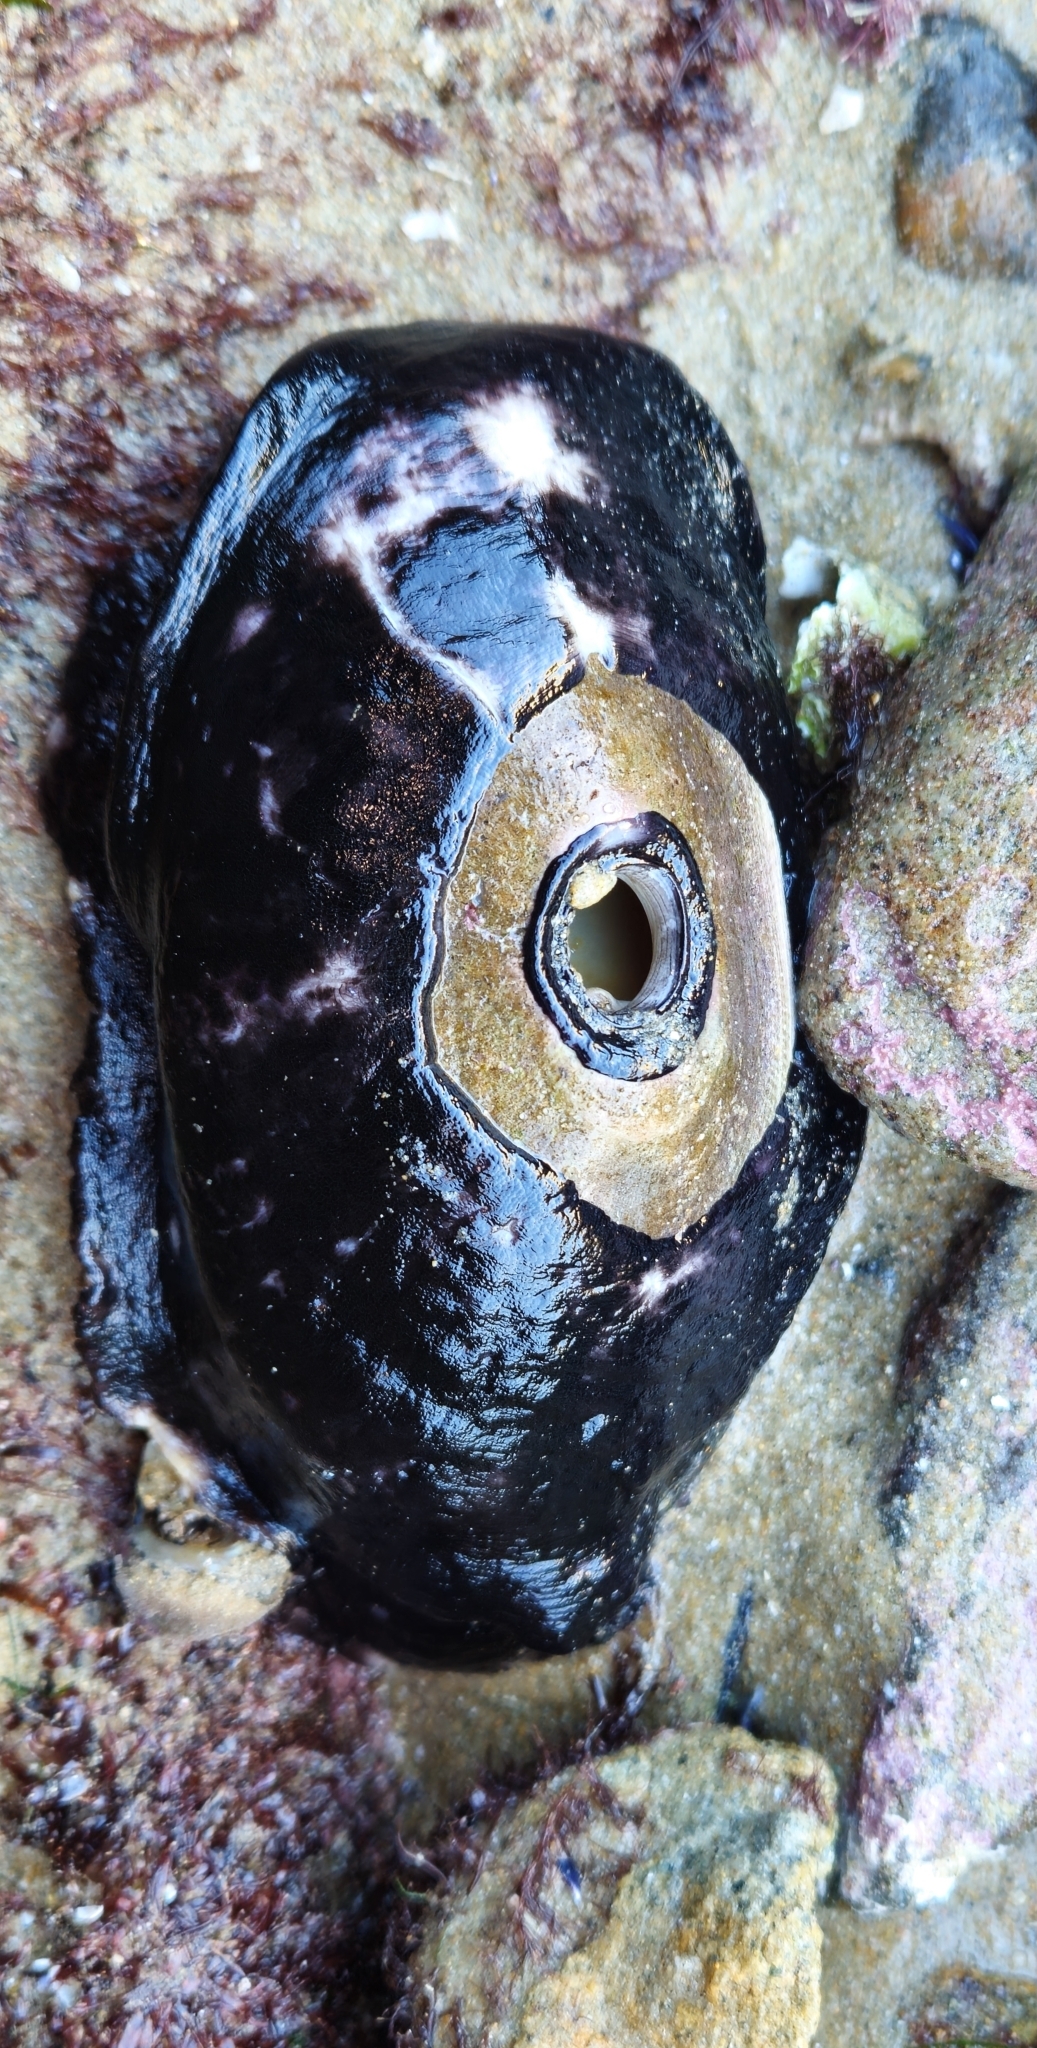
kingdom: Animalia
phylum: Mollusca
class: Gastropoda
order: Lepetellida
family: Fissurellidae
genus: Megathura
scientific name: Megathura crenulata
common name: Giant keyhole limpet
